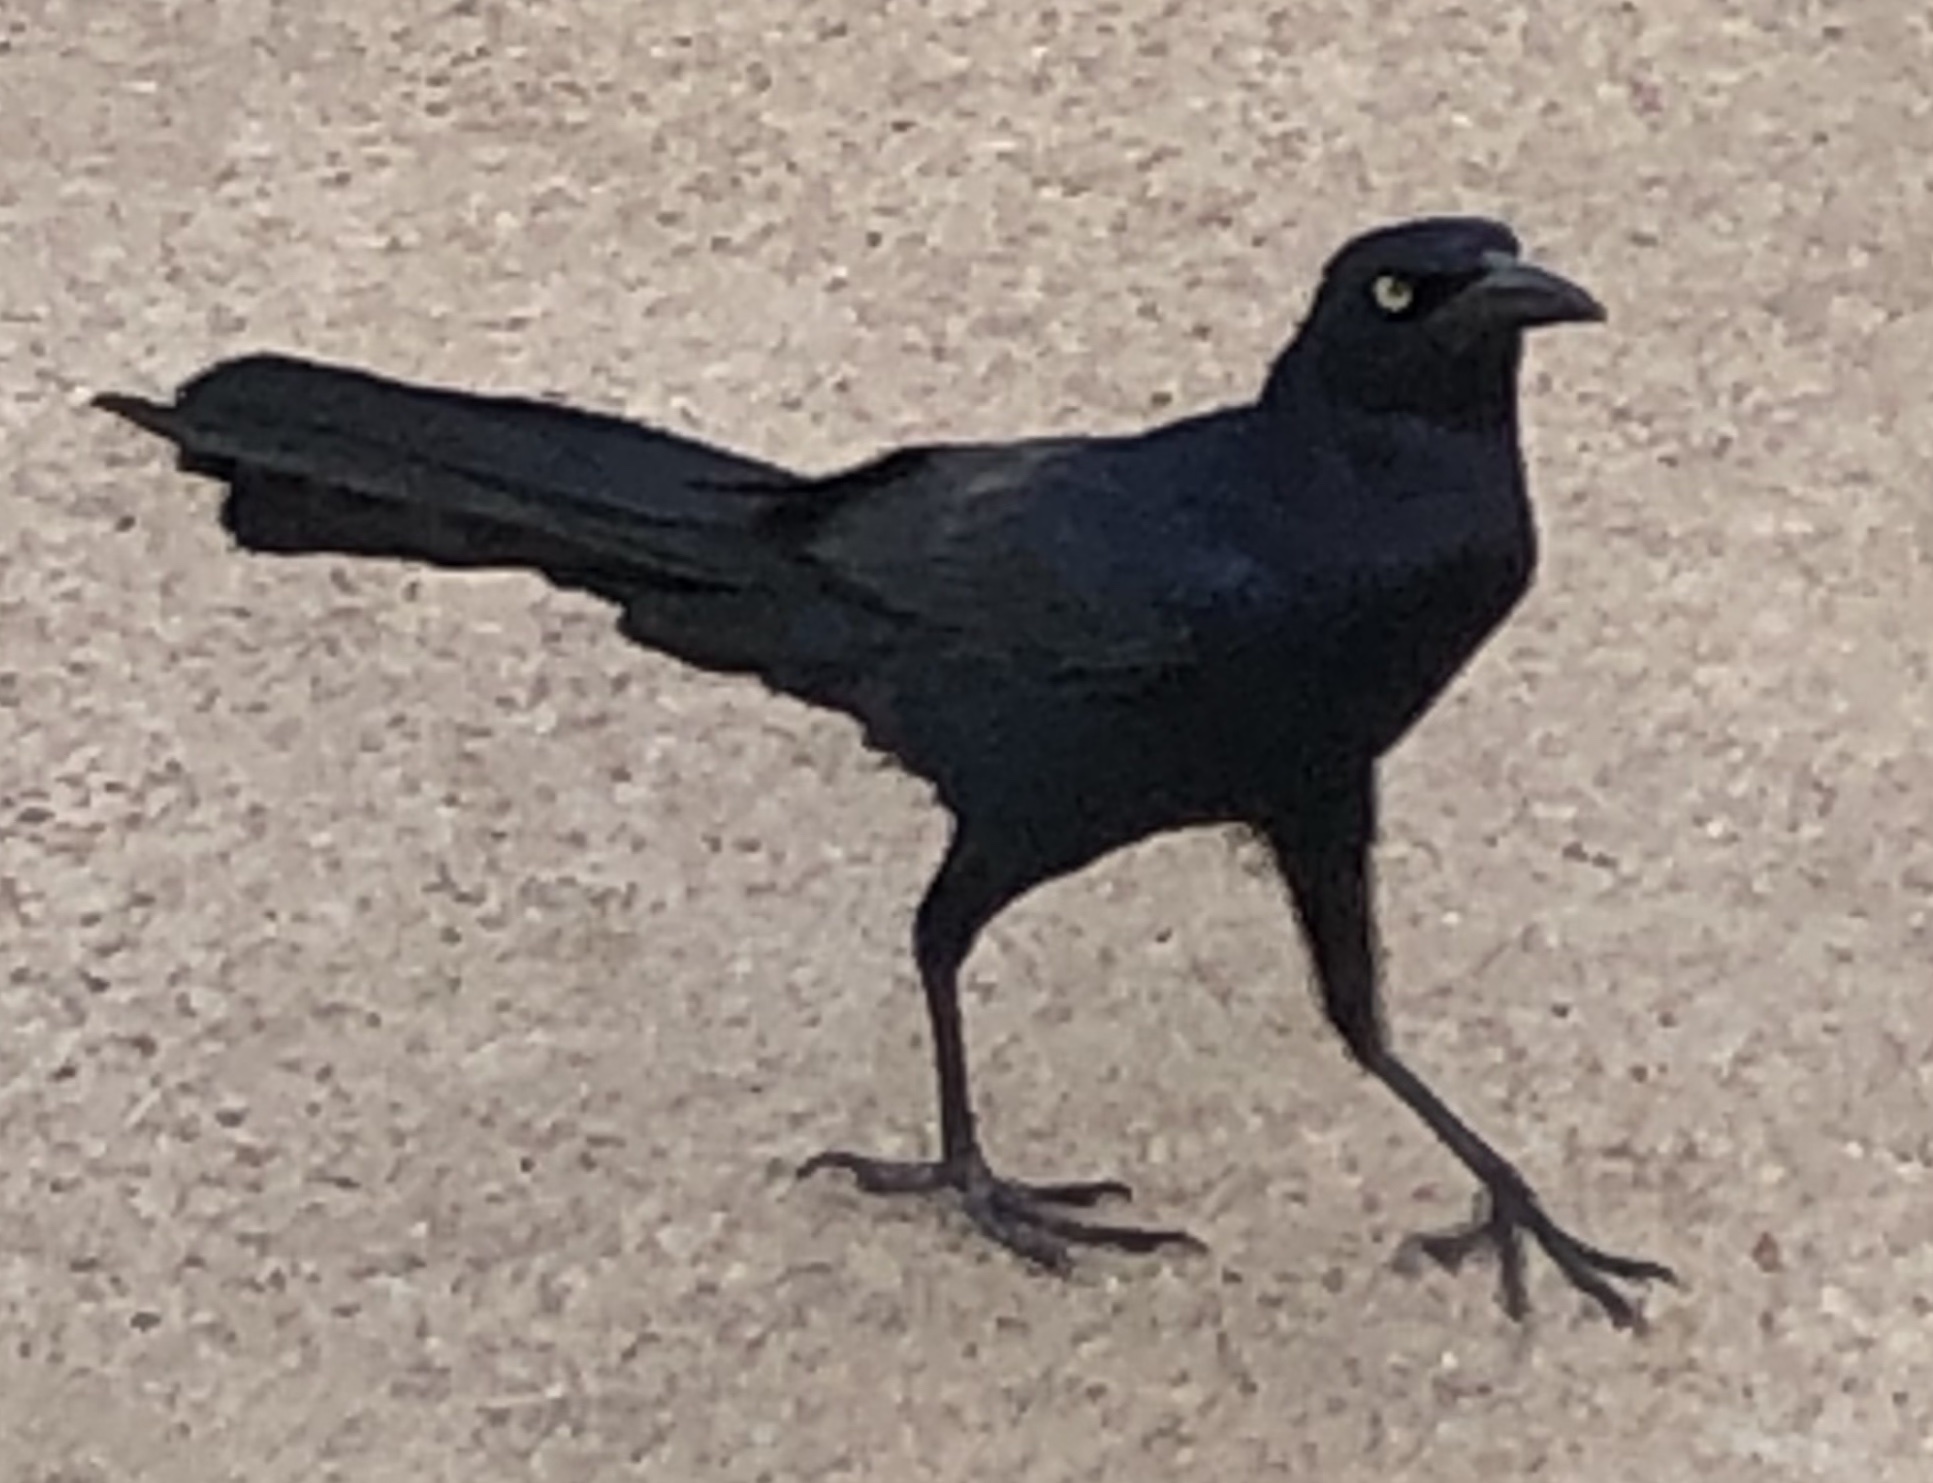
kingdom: Animalia
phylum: Chordata
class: Aves
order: Passeriformes
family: Icteridae
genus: Quiscalus
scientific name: Quiscalus mexicanus
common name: Great-tailed grackle
